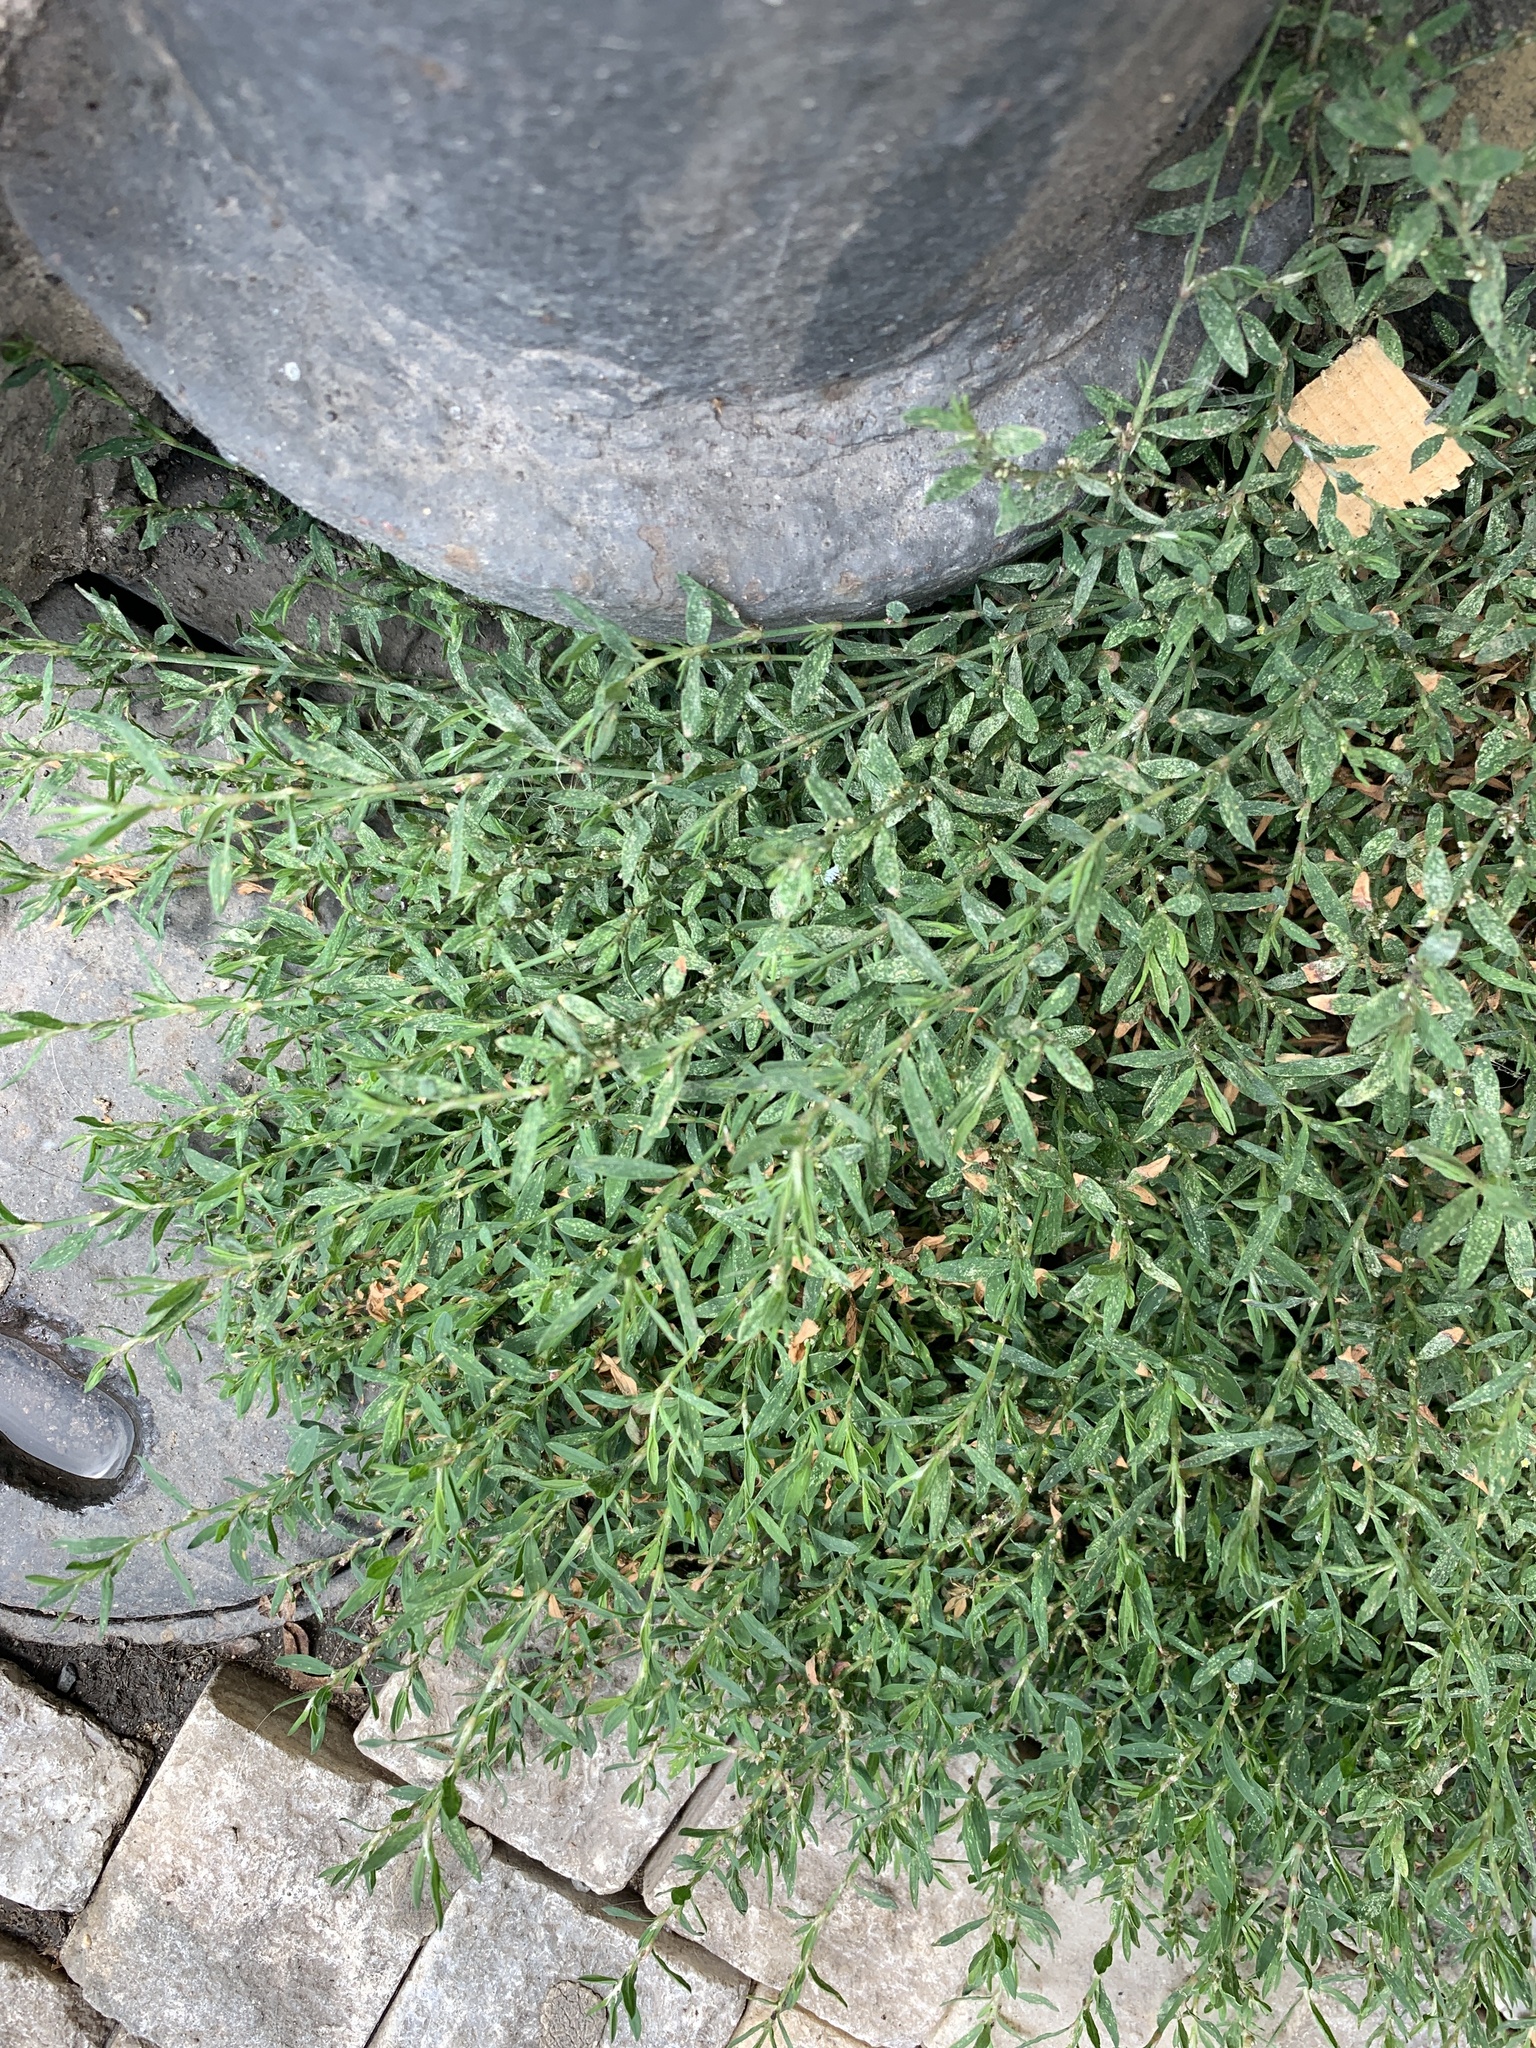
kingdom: Plantae
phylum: Tracheophyta
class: Magnoliopsida
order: Caryophyllales
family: Polygonaceae
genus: Polygonum
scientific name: Polygonum
